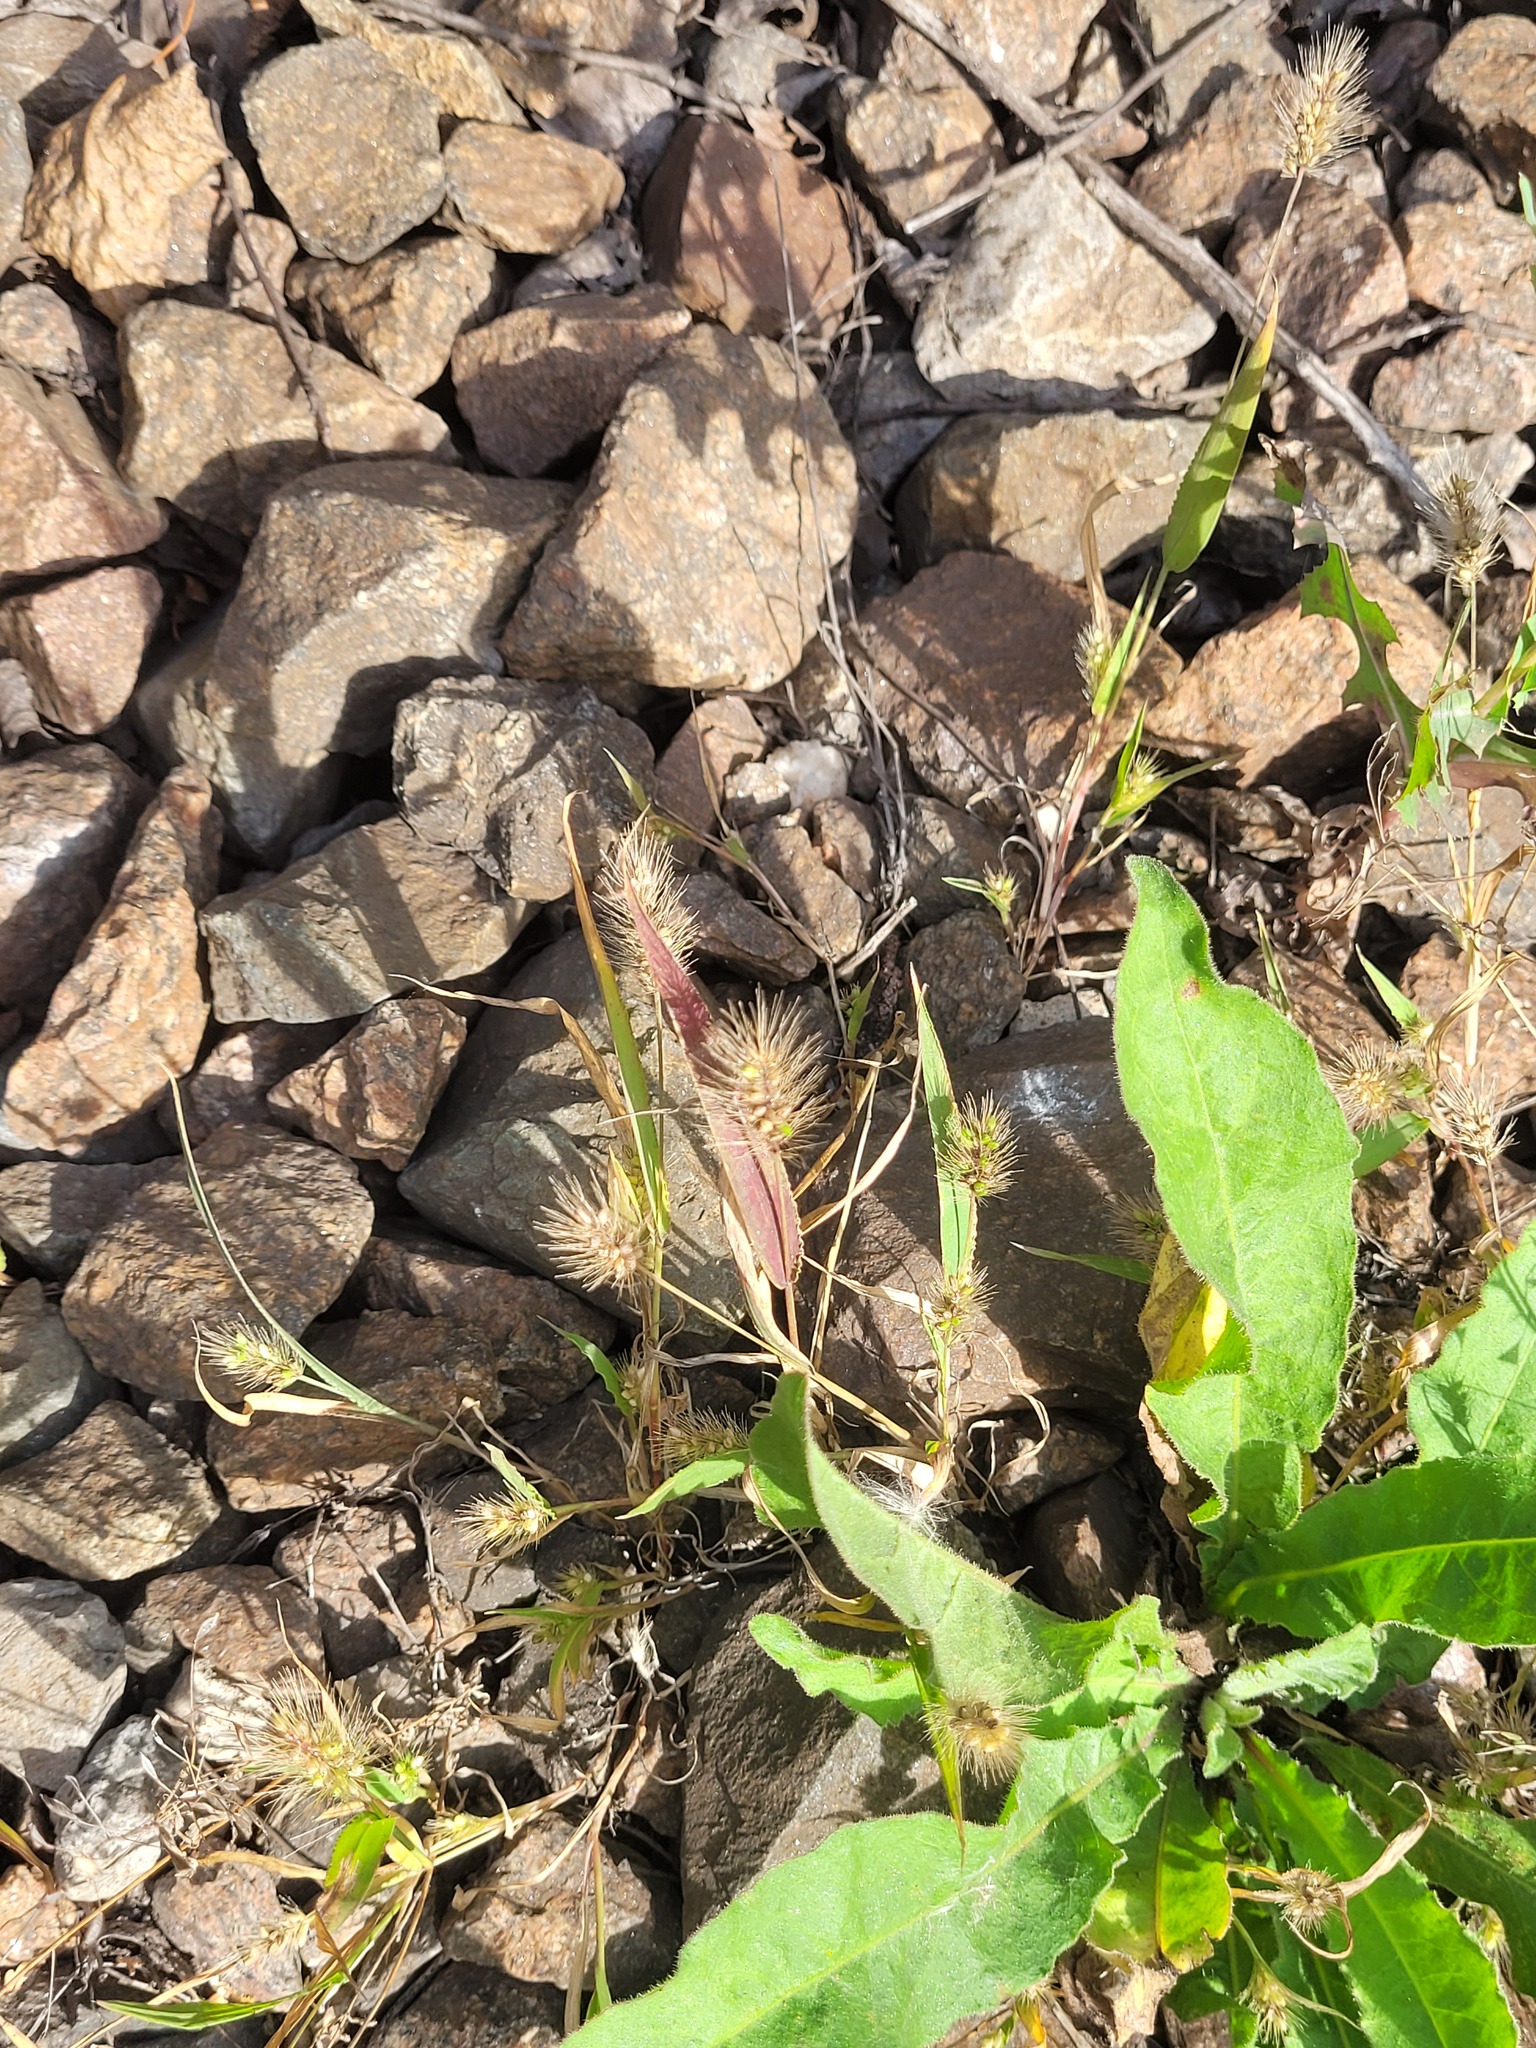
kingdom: Plantae
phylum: Tracheophyta
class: Liliopsida
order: Poales
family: Poaceae
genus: Setaria
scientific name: Setaria viridis
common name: Green bristlegrass
